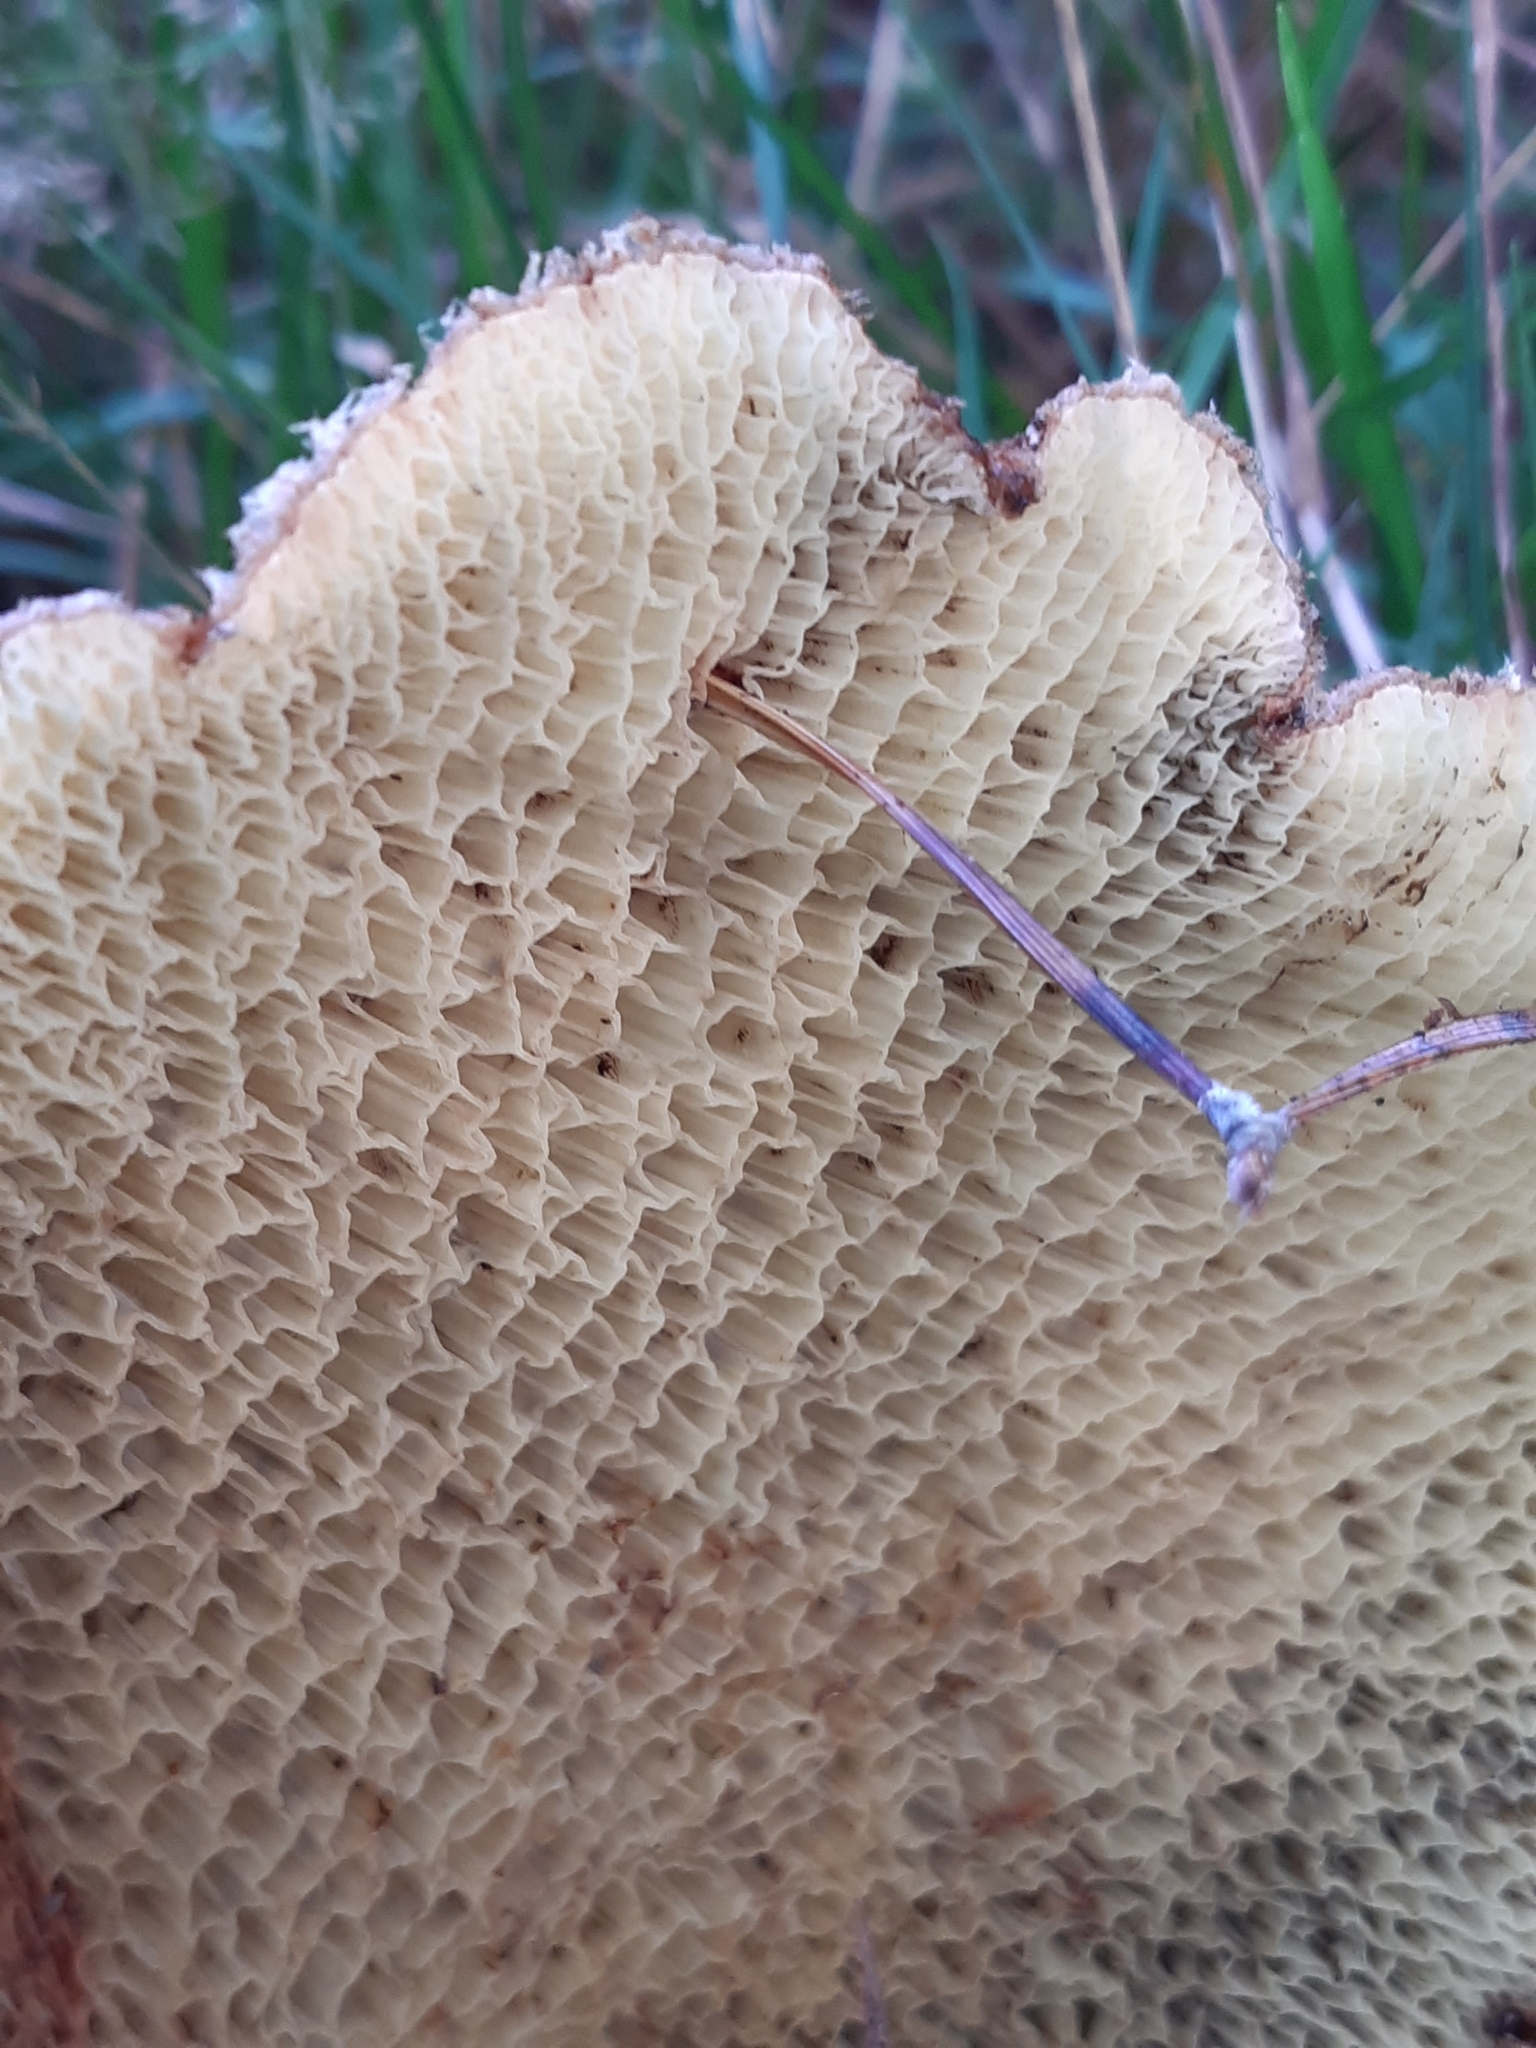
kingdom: Fungi
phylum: Basidiomycota
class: Agaricomycetes
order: Boletales
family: Suillaceae
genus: Suillus
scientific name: Suillus cavipes
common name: Hollow bolete
